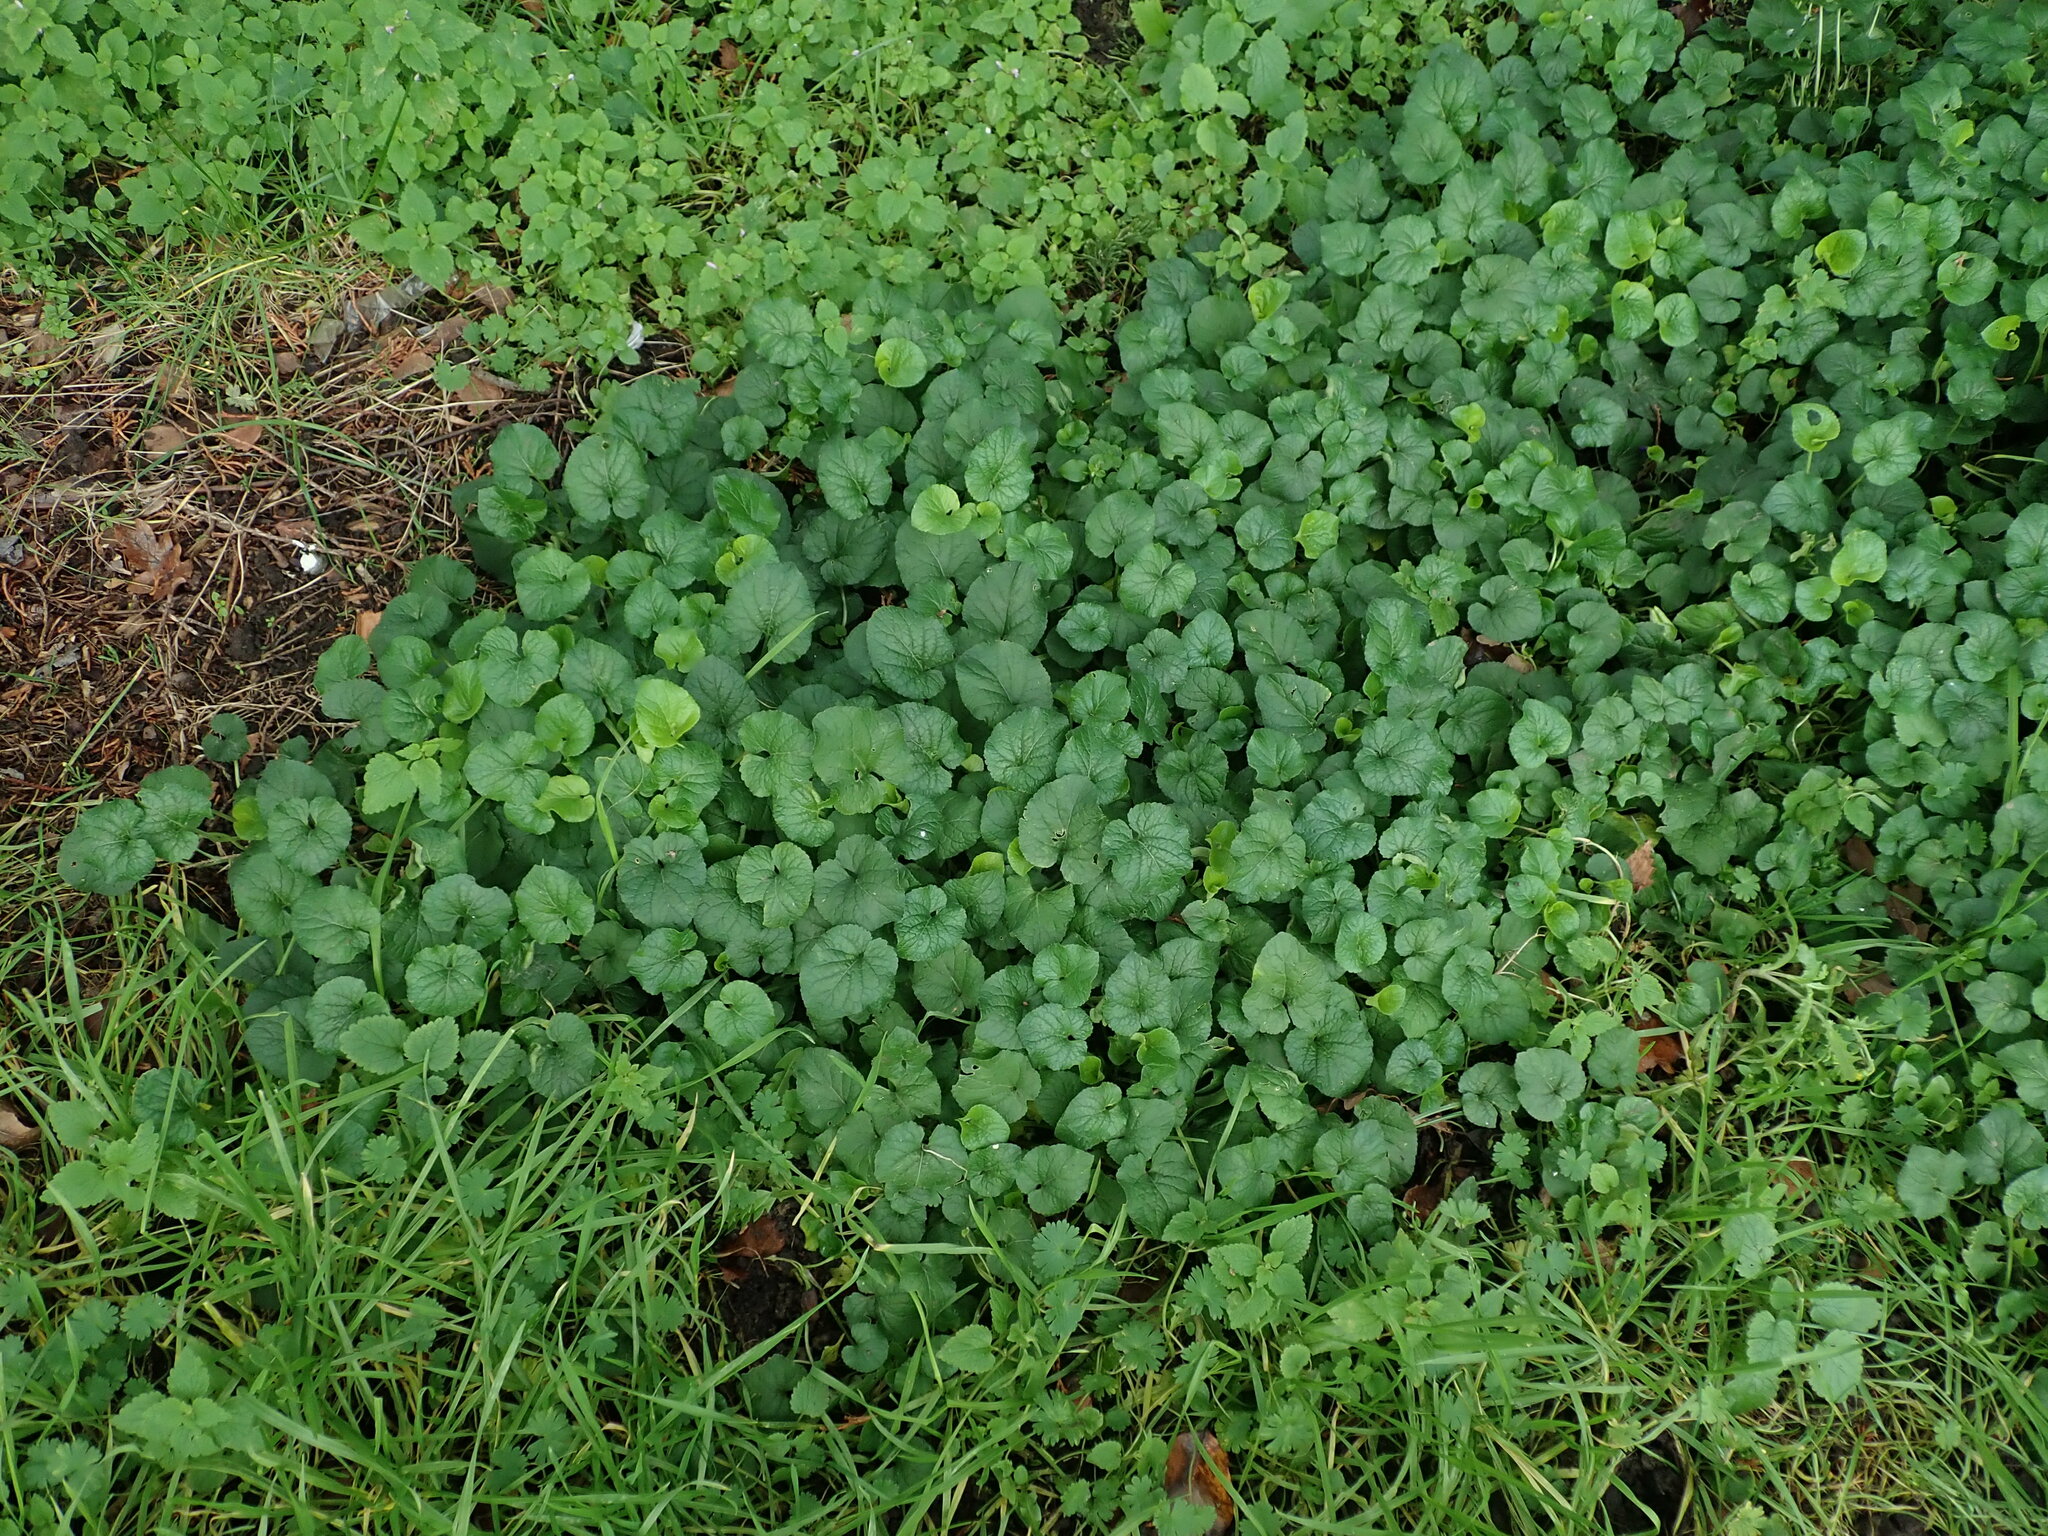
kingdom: Plantae
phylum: Tracheophyta
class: Magnoliopsida
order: Malpighiales
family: Violaceae
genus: Viola
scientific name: Viola odorata
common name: Sweet violet
